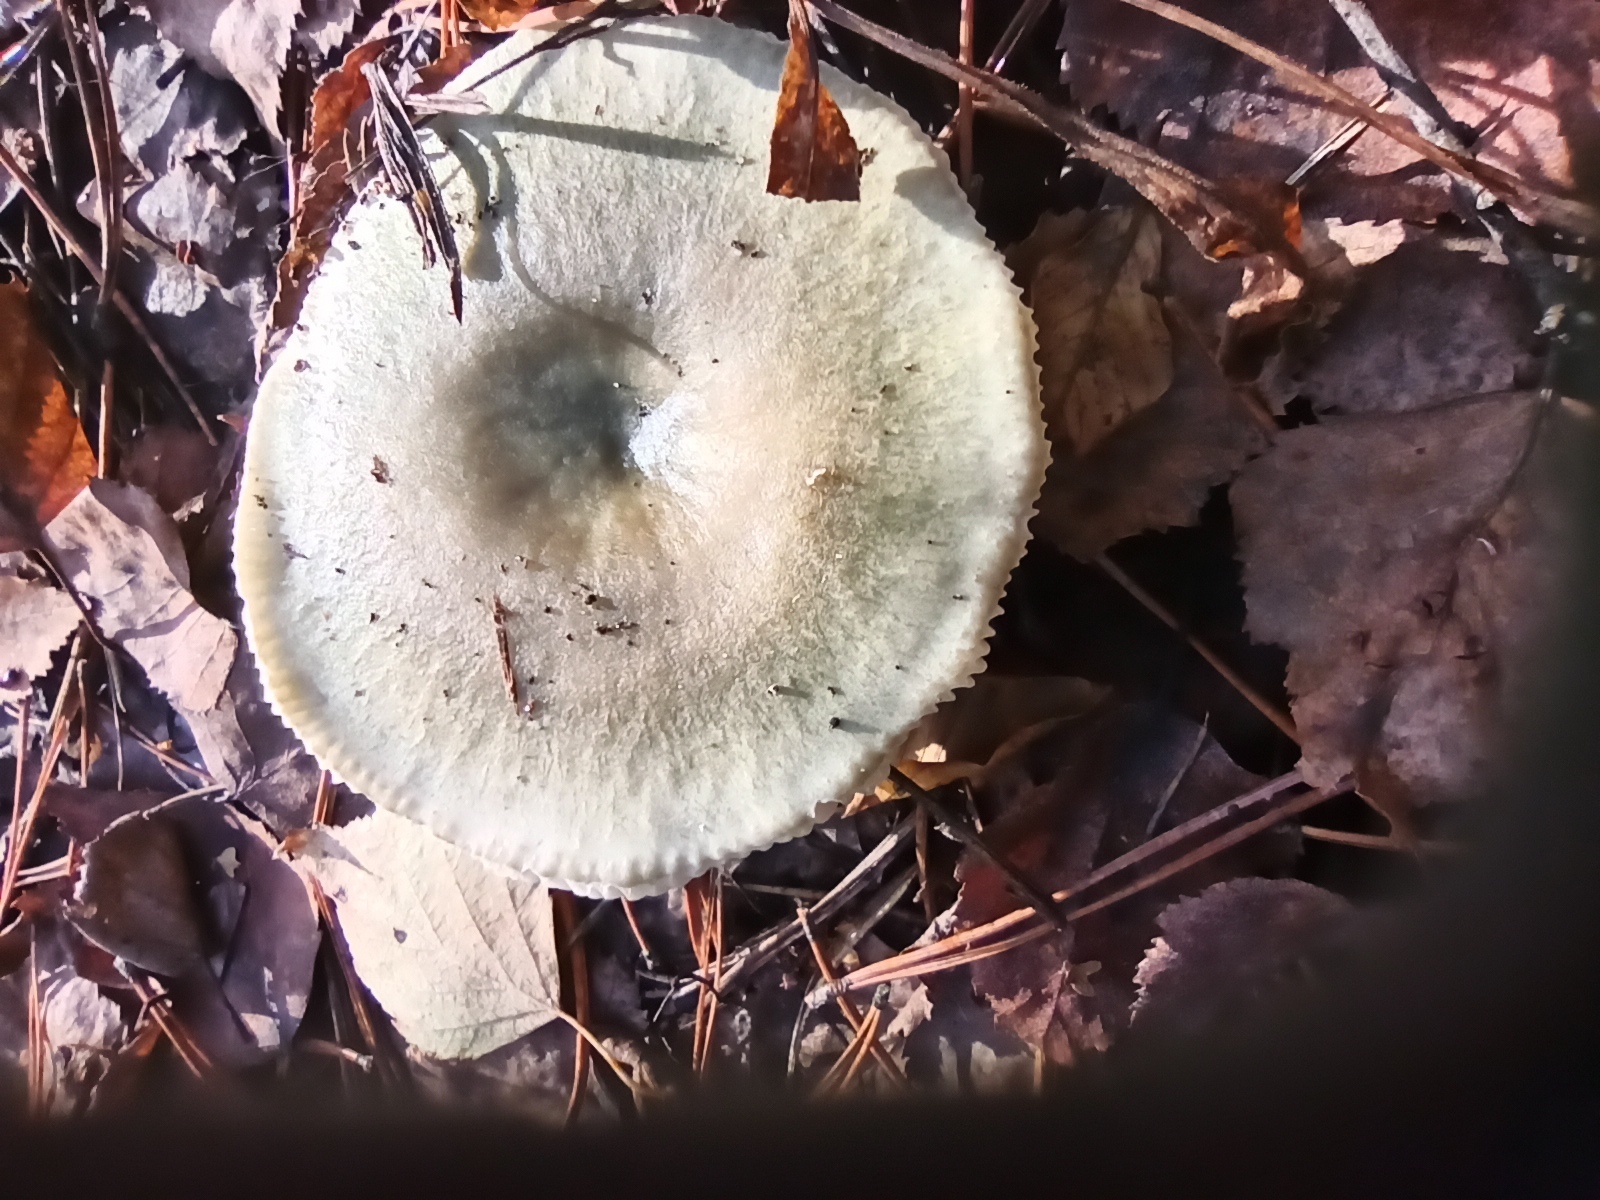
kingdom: Fungi
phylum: Basidiomycota
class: Agaricomycetes
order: Russulales
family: Russulaceae
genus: Russula
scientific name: Russula aeruginea
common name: Green brittlegill
